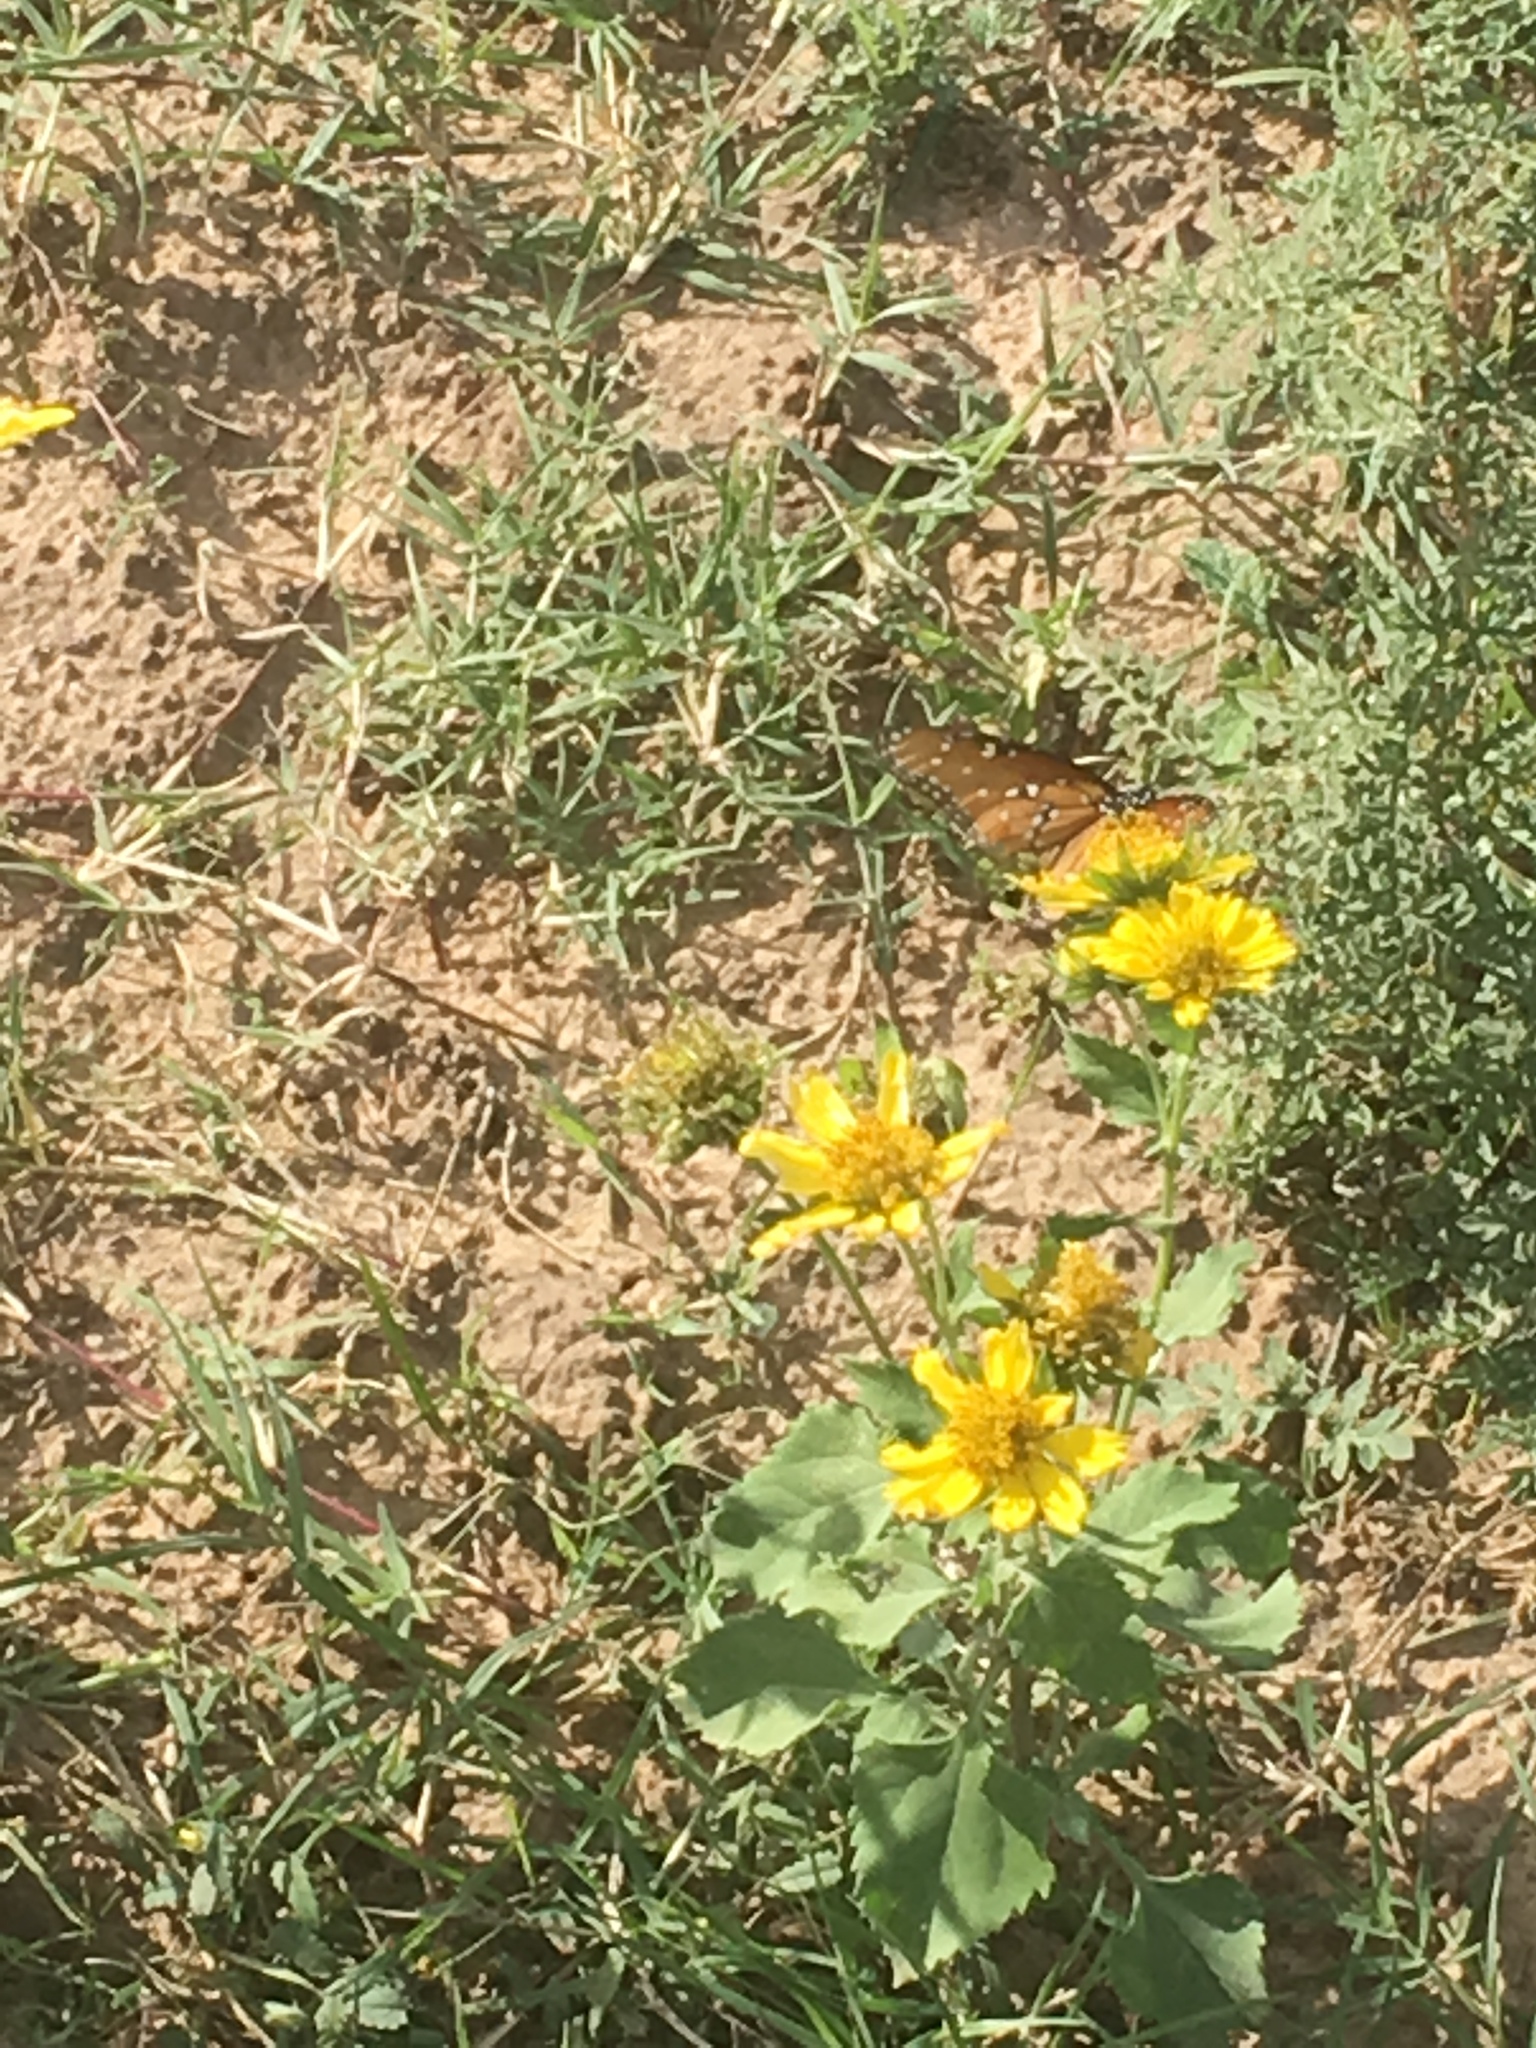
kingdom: Animalia
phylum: Arthropoda
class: Insecta
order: Lepidoptera
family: Nymphalidae
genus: Danaus
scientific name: Danaus gilippus
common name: Queen
